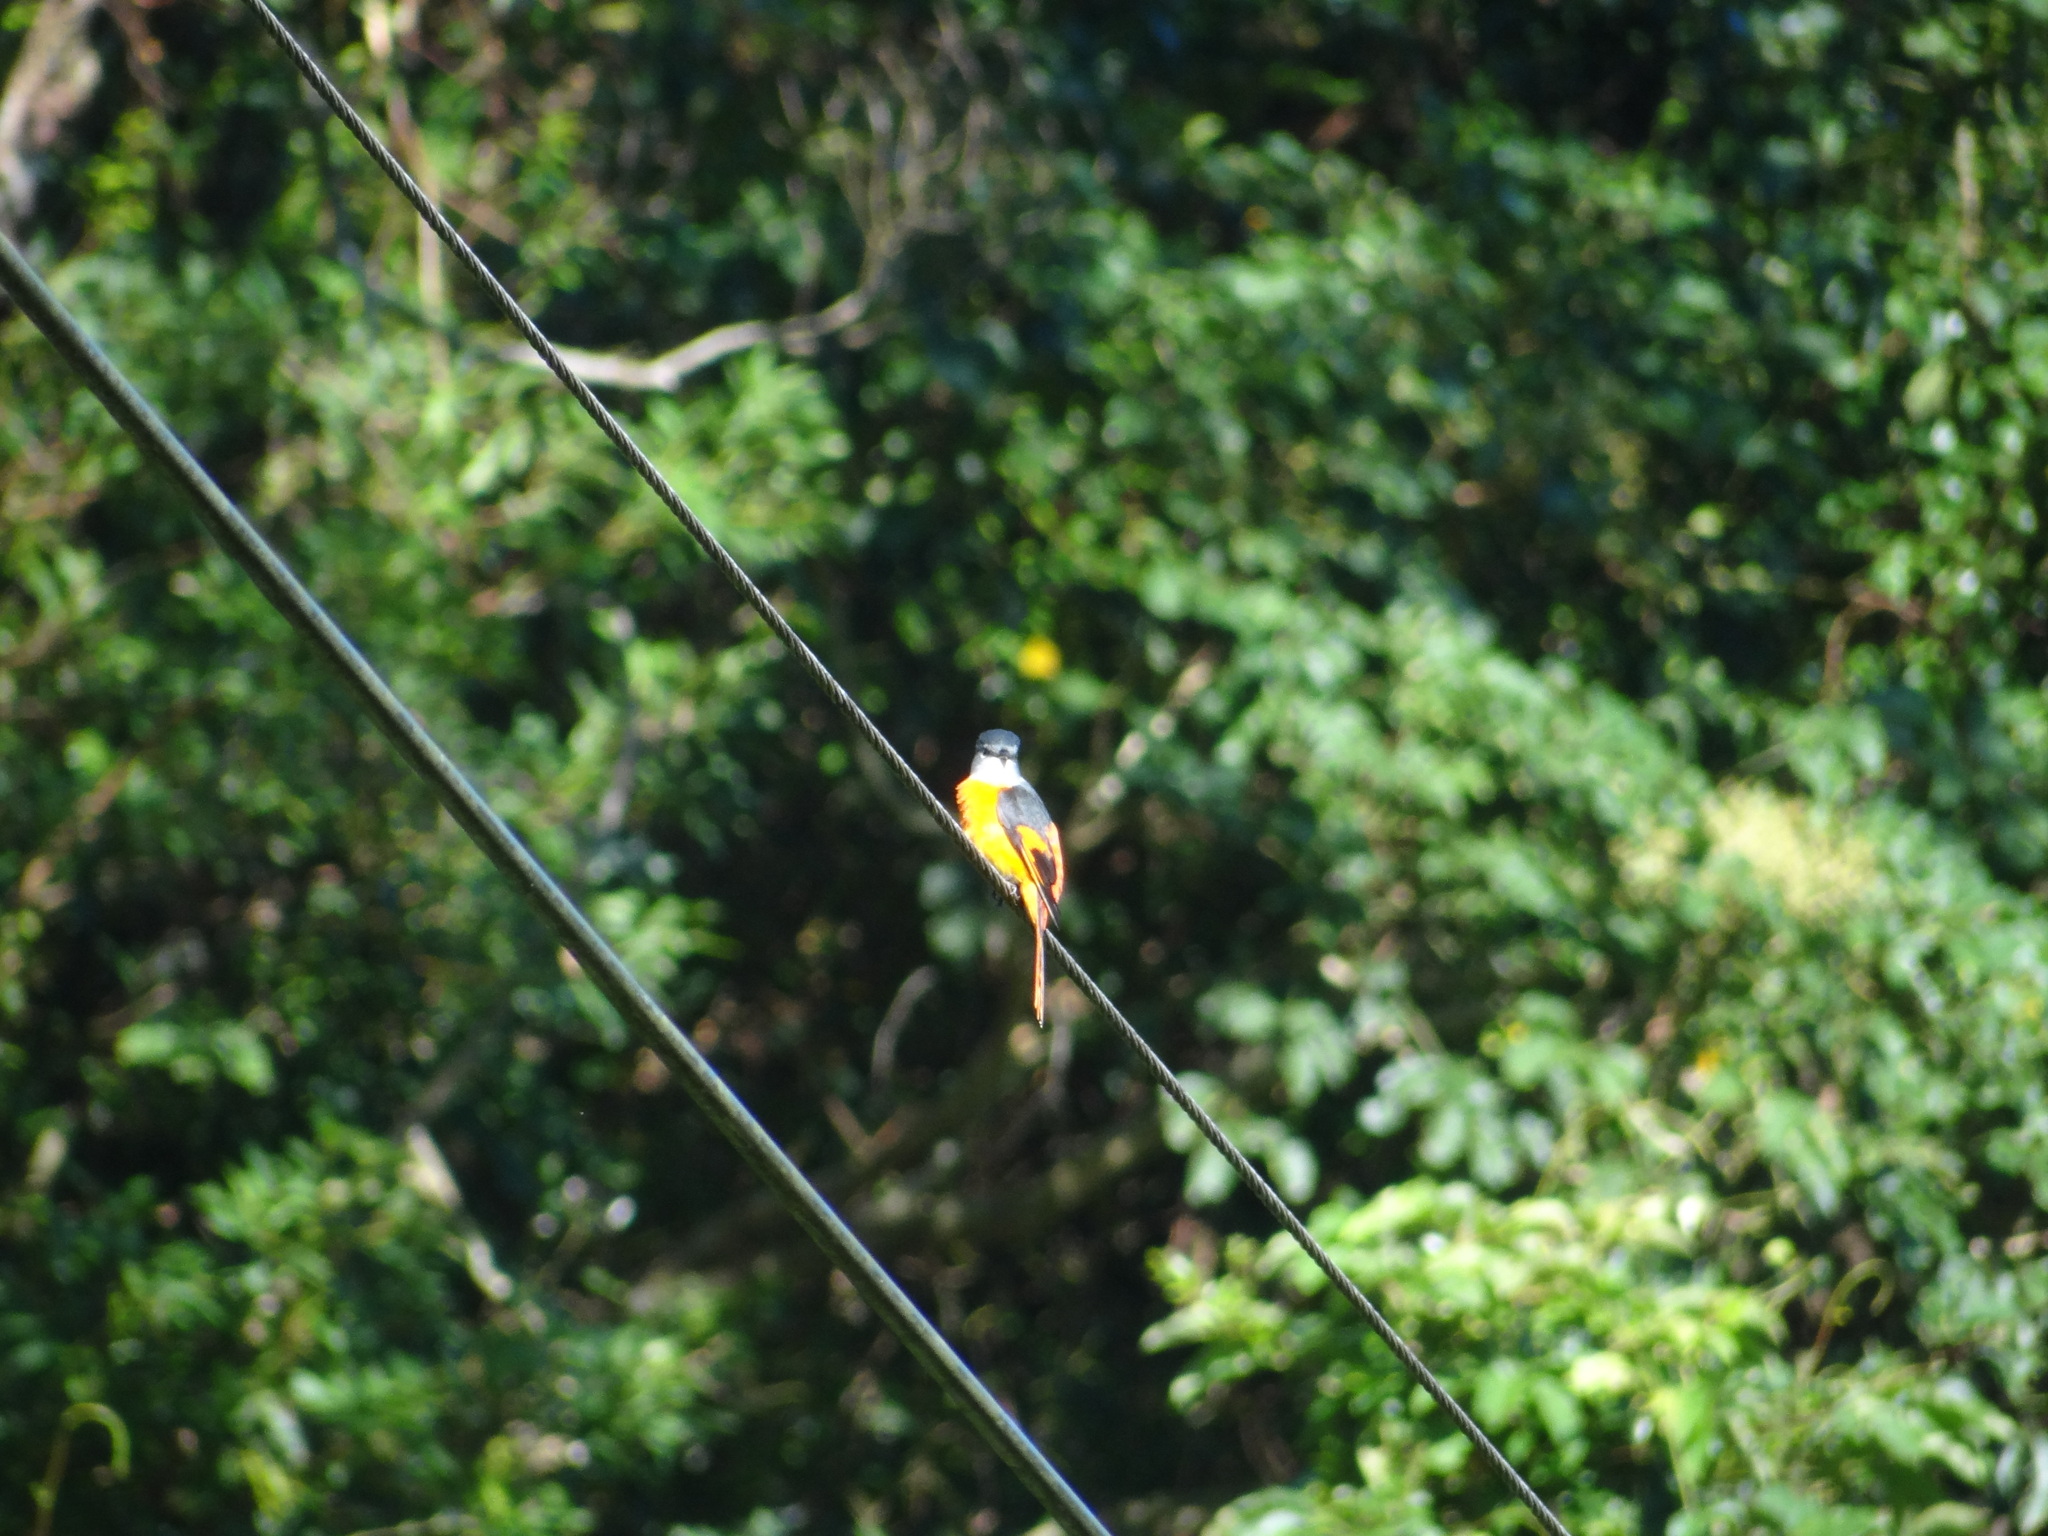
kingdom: Animalia
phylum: Chordata
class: Aves
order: Passeriformes
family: Campephagidae
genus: Pericrocotus
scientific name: Pericrocotus solaris
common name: Grey-chinned minivet
